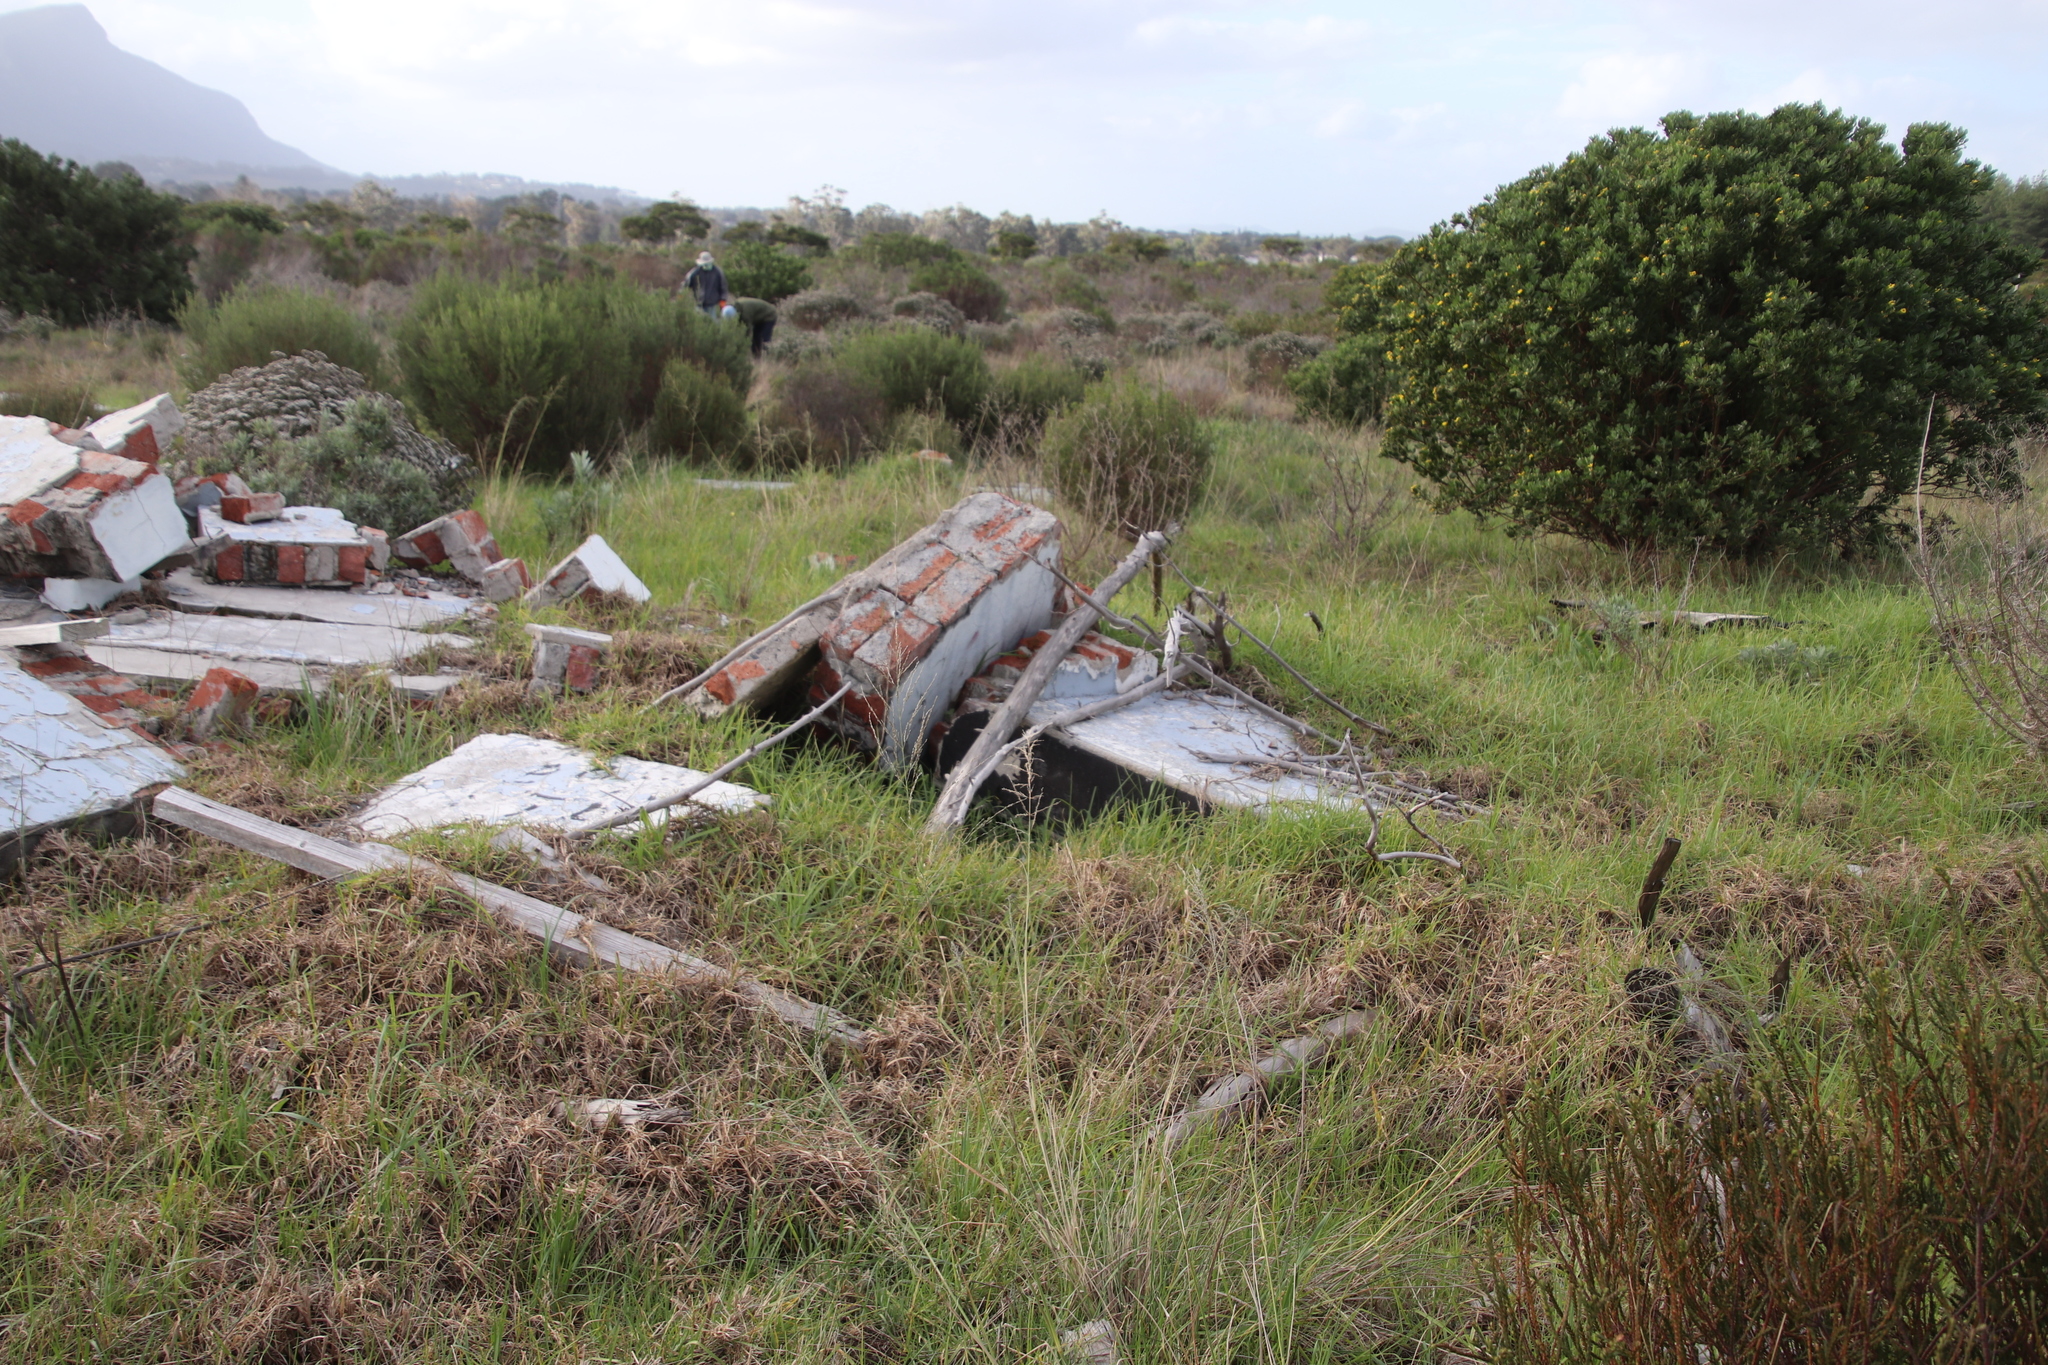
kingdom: Plantae
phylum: Tracheophyta
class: Liliopsida
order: Poales
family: Poaceae
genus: Cenchrus
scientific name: Cenchrus clandestinus
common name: Kikuyugrass
